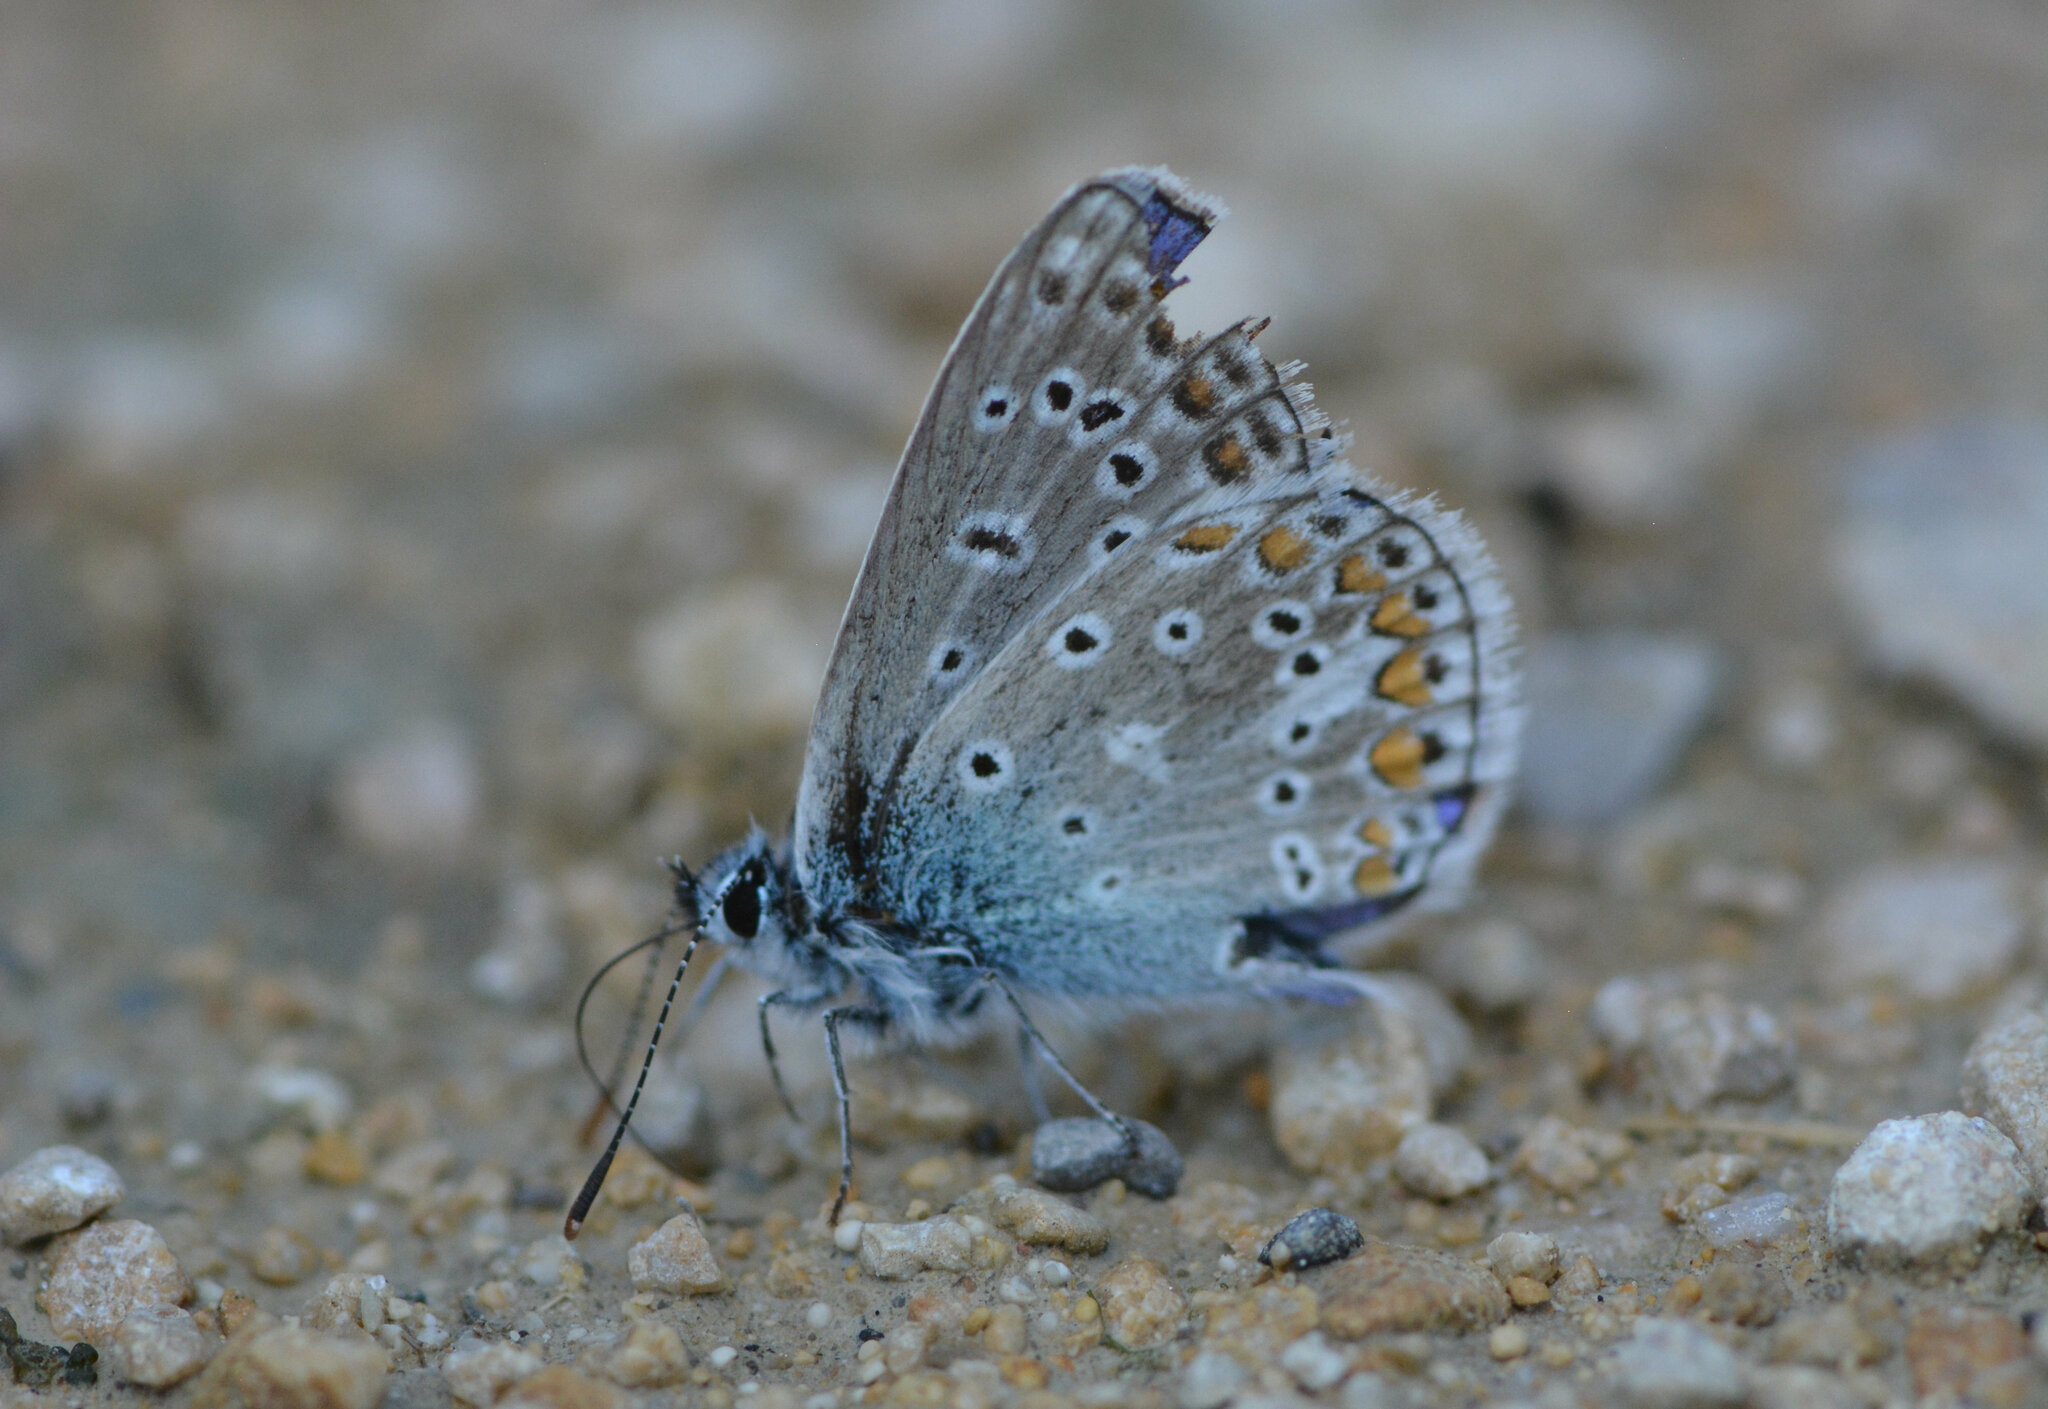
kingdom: Animalia
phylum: Arthropoda
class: Insecta
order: Lepidoptera
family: Lycaenidae
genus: Polyommatus
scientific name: Polyommatus icarus
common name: Common blue
